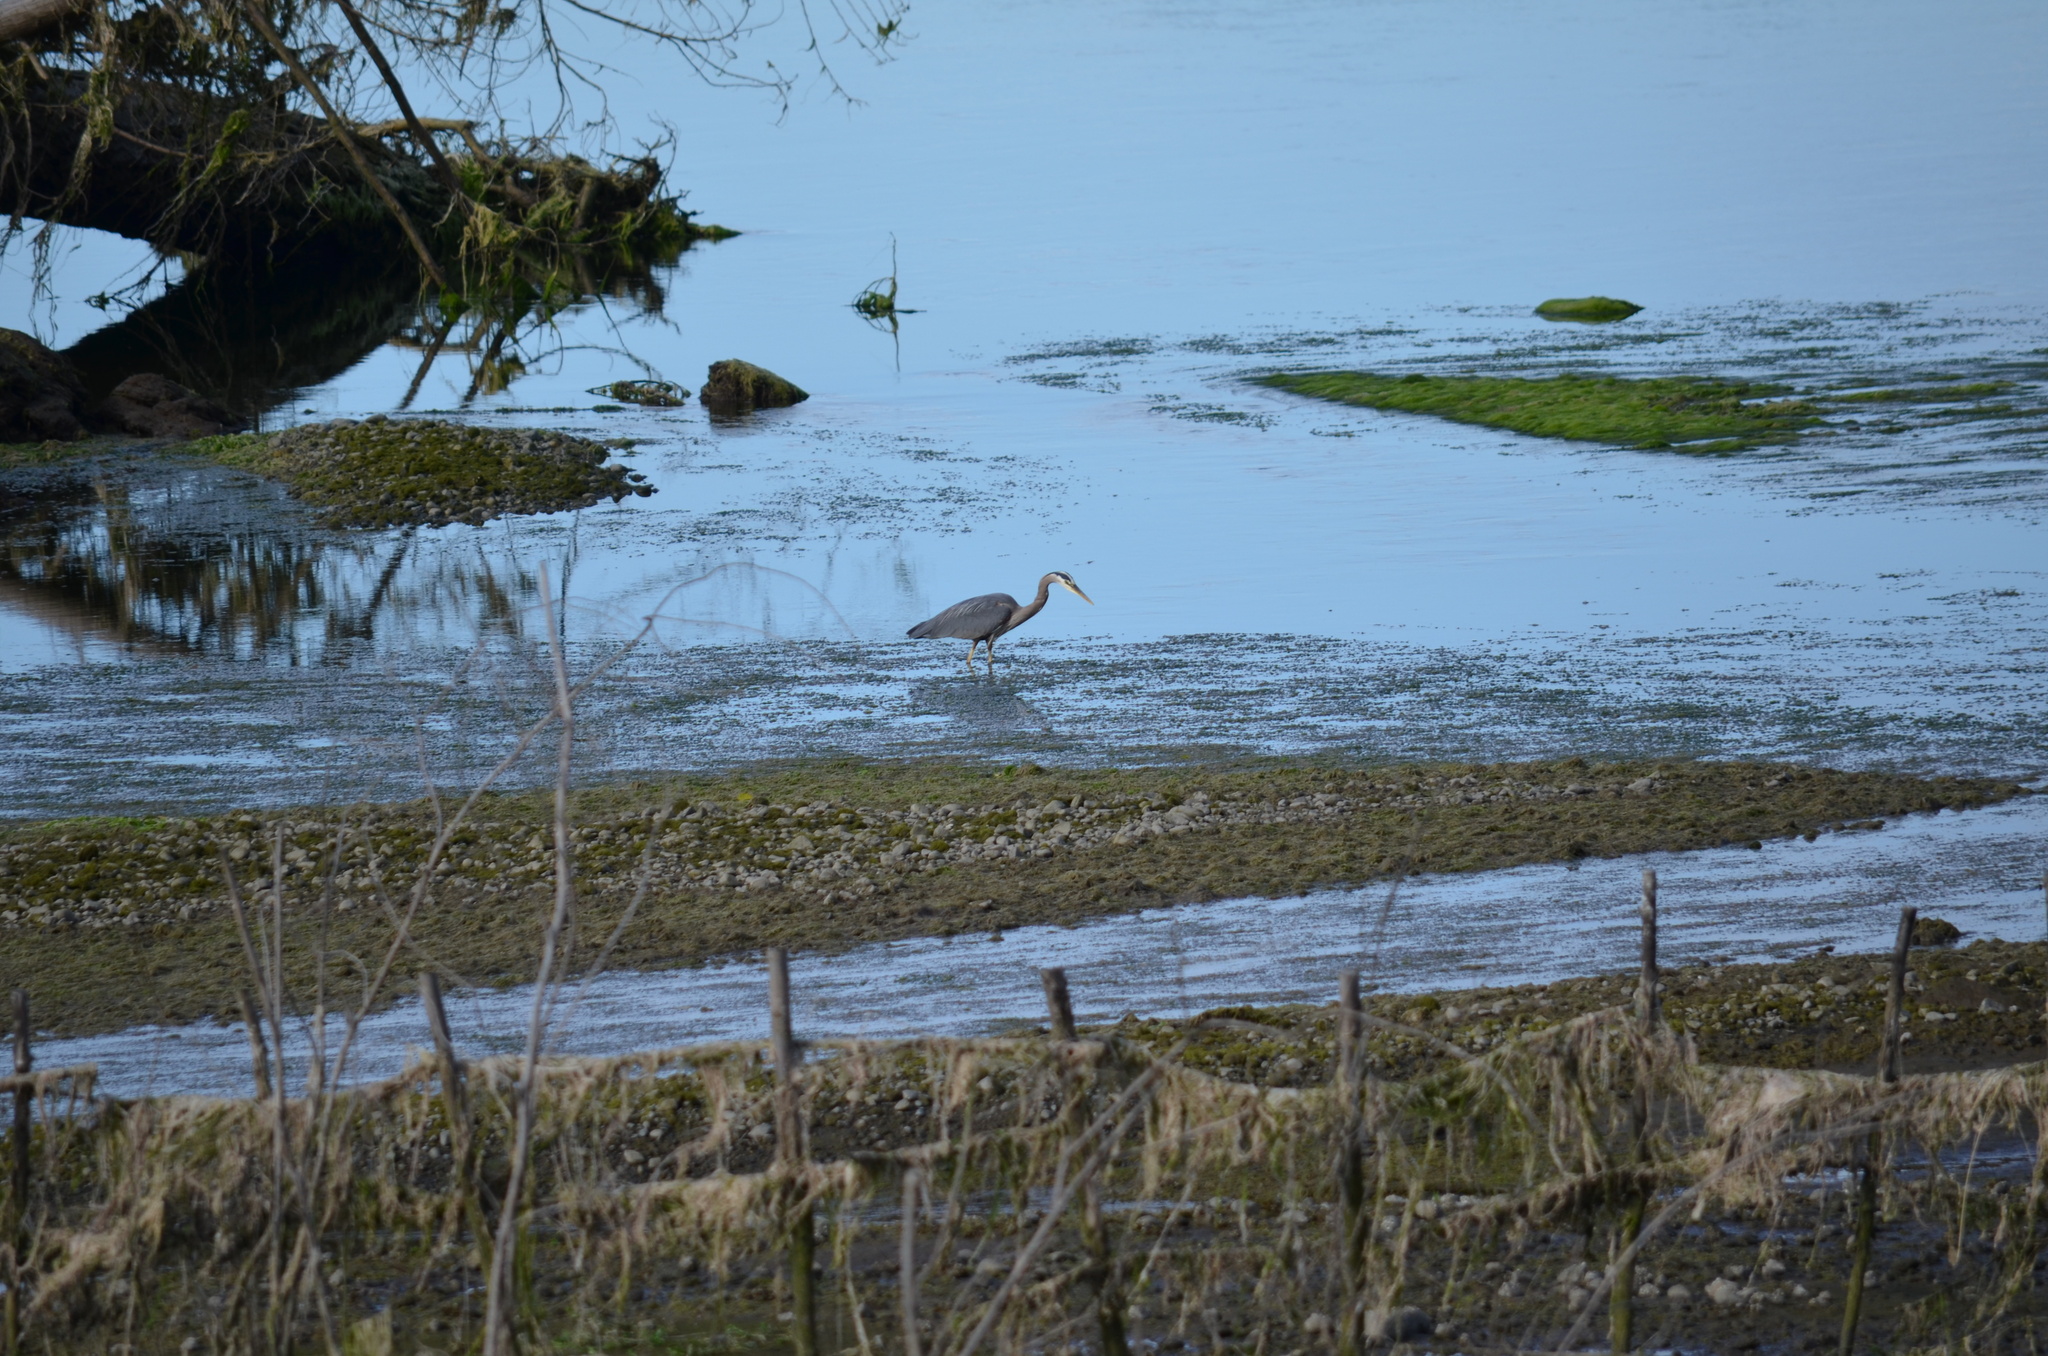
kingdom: Animalia
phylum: Chordata
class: Aves
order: Pelecaniformes
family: Ardeidae
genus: Ardea
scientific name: Ardea herodias
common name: Great blue heron
